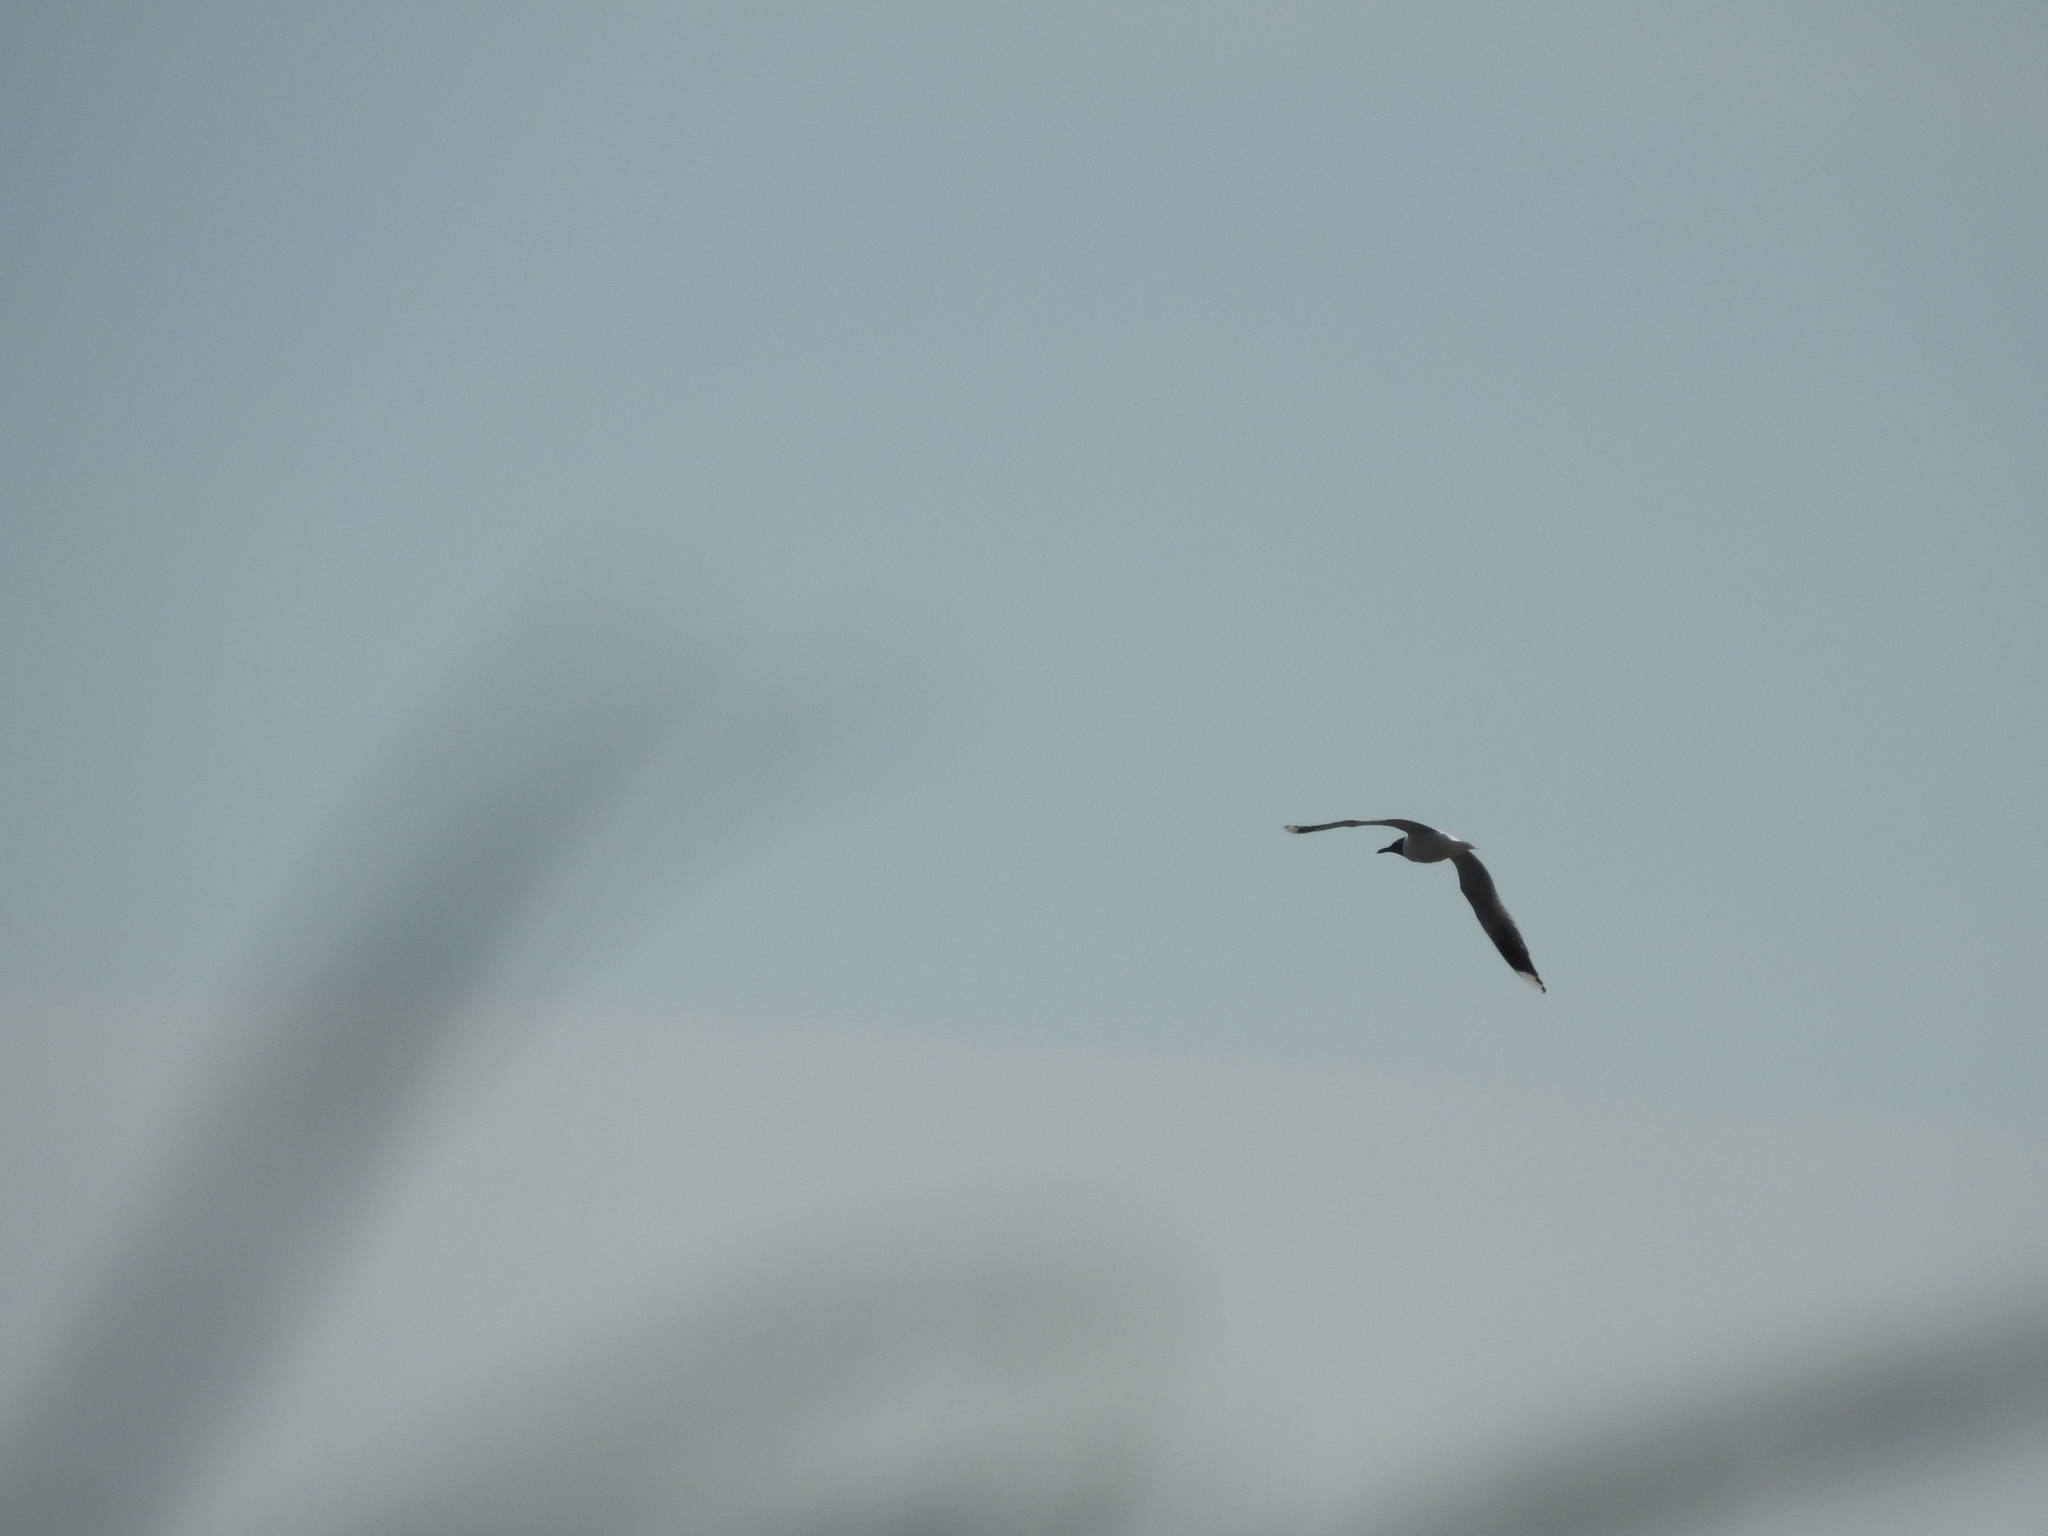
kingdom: Animalia
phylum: Chordata
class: Aves
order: Charadriiformes
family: Laridae
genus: Chroicocephalus
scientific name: Chroicocephalus maculipennis
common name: Brown-hooded gull
